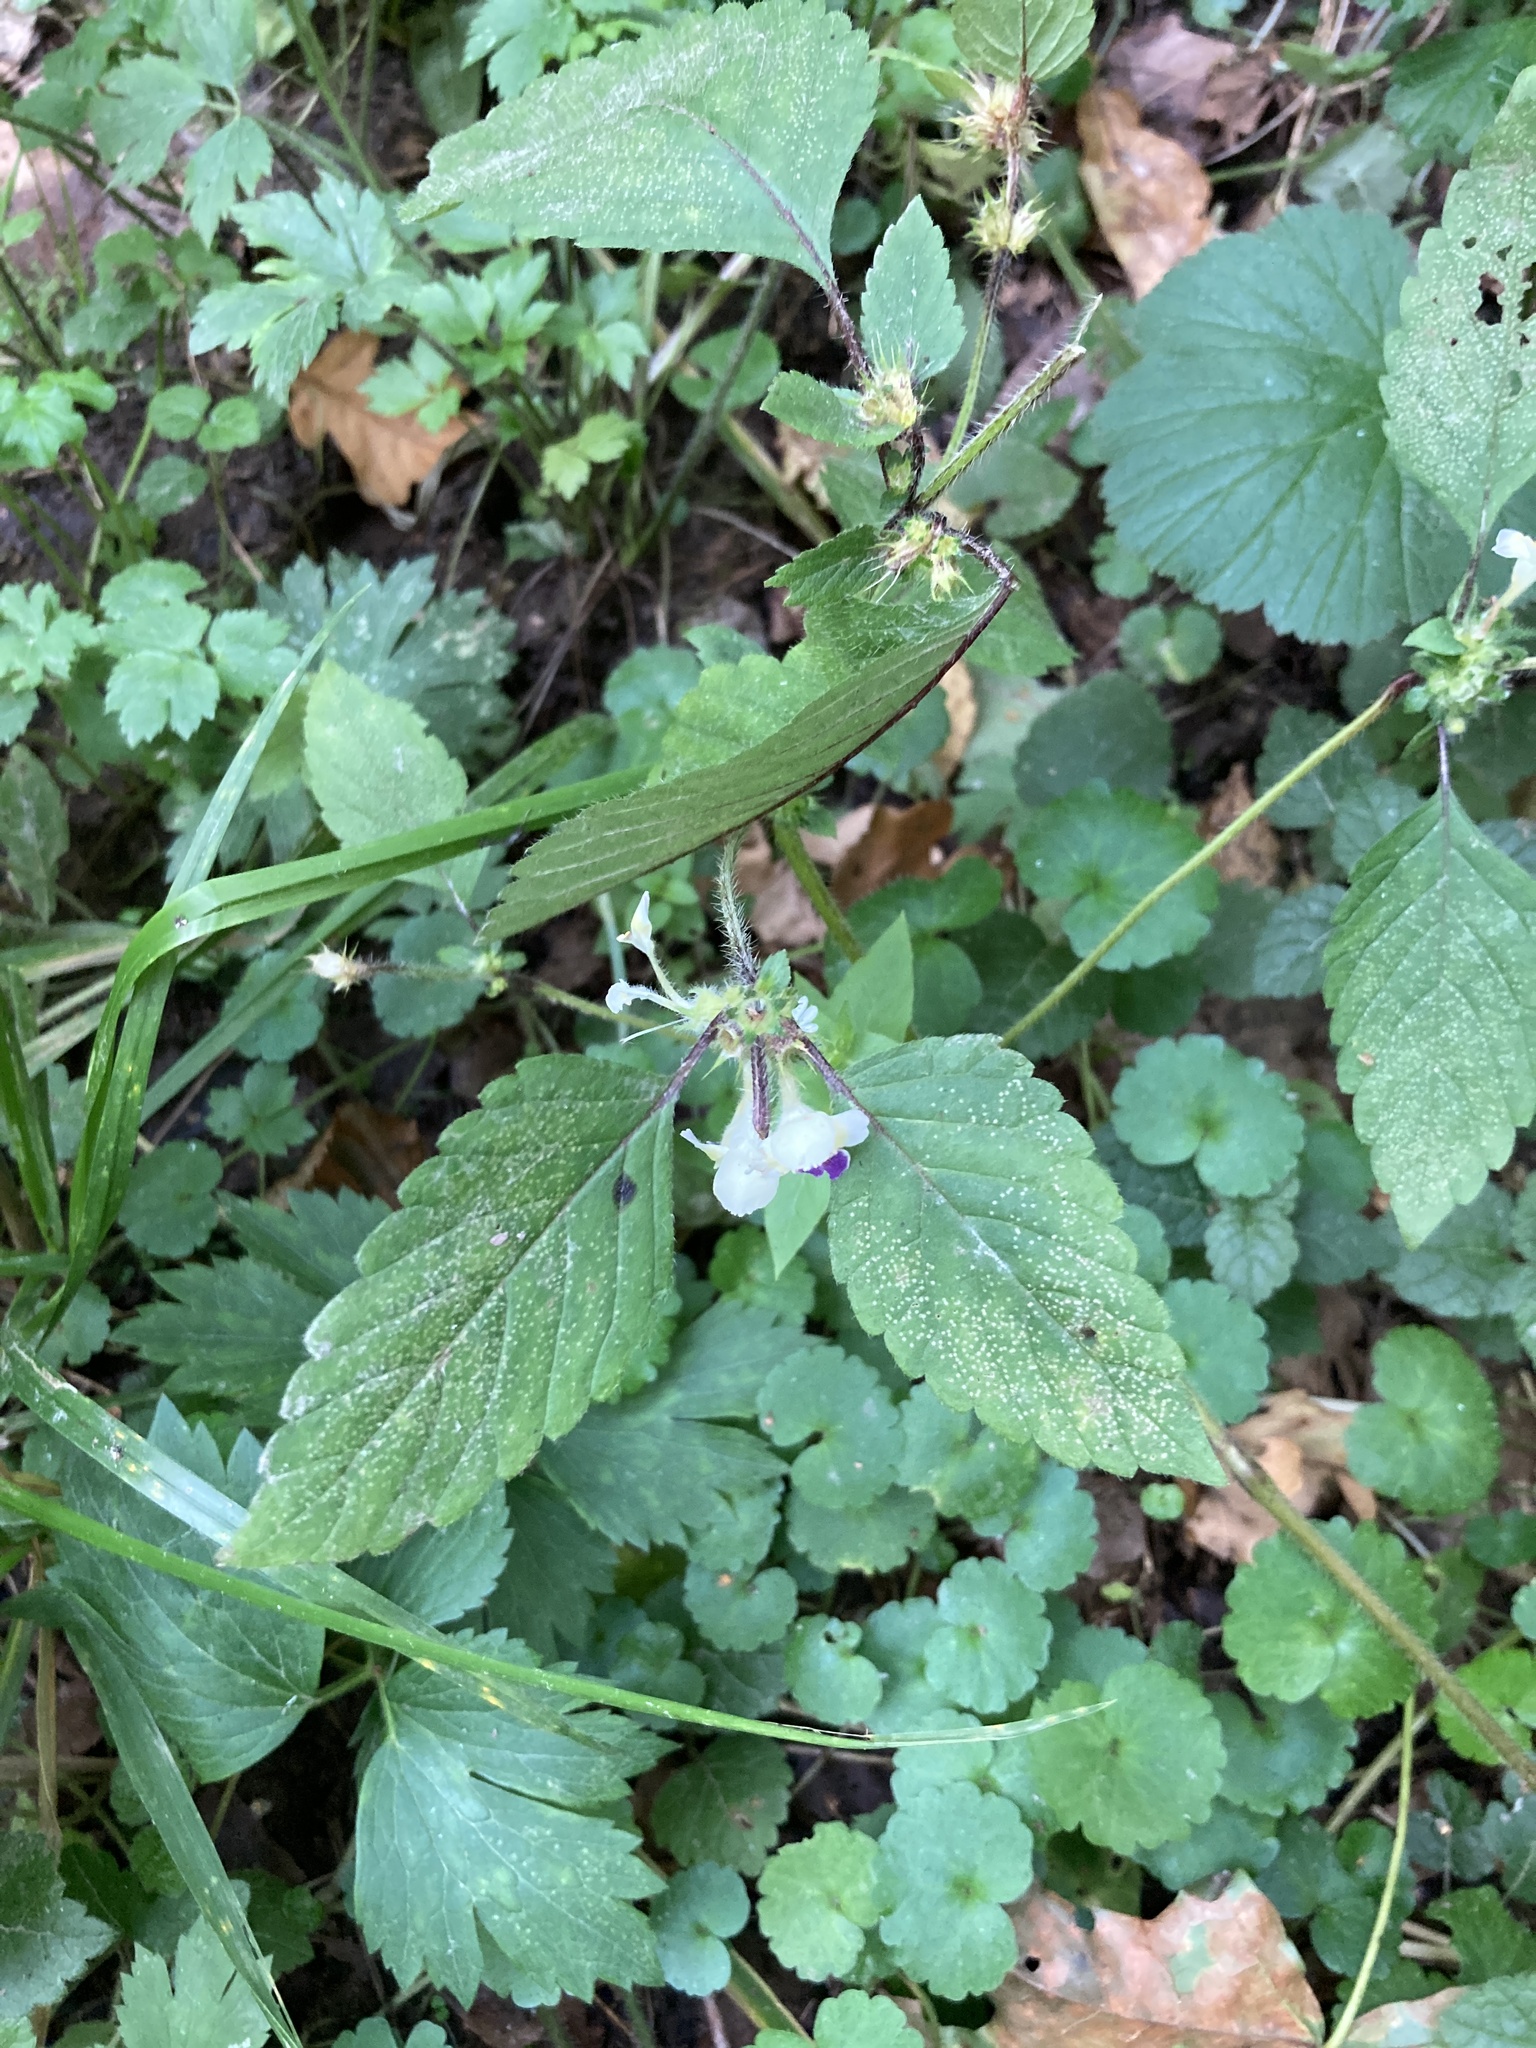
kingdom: Plantae
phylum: Tracheophyta
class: Magnoliopsida
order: Lamiales
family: Lamiaceae
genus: Galeopsis
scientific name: Galeopsis speciosa
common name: Large-flowered hemp-nettle
